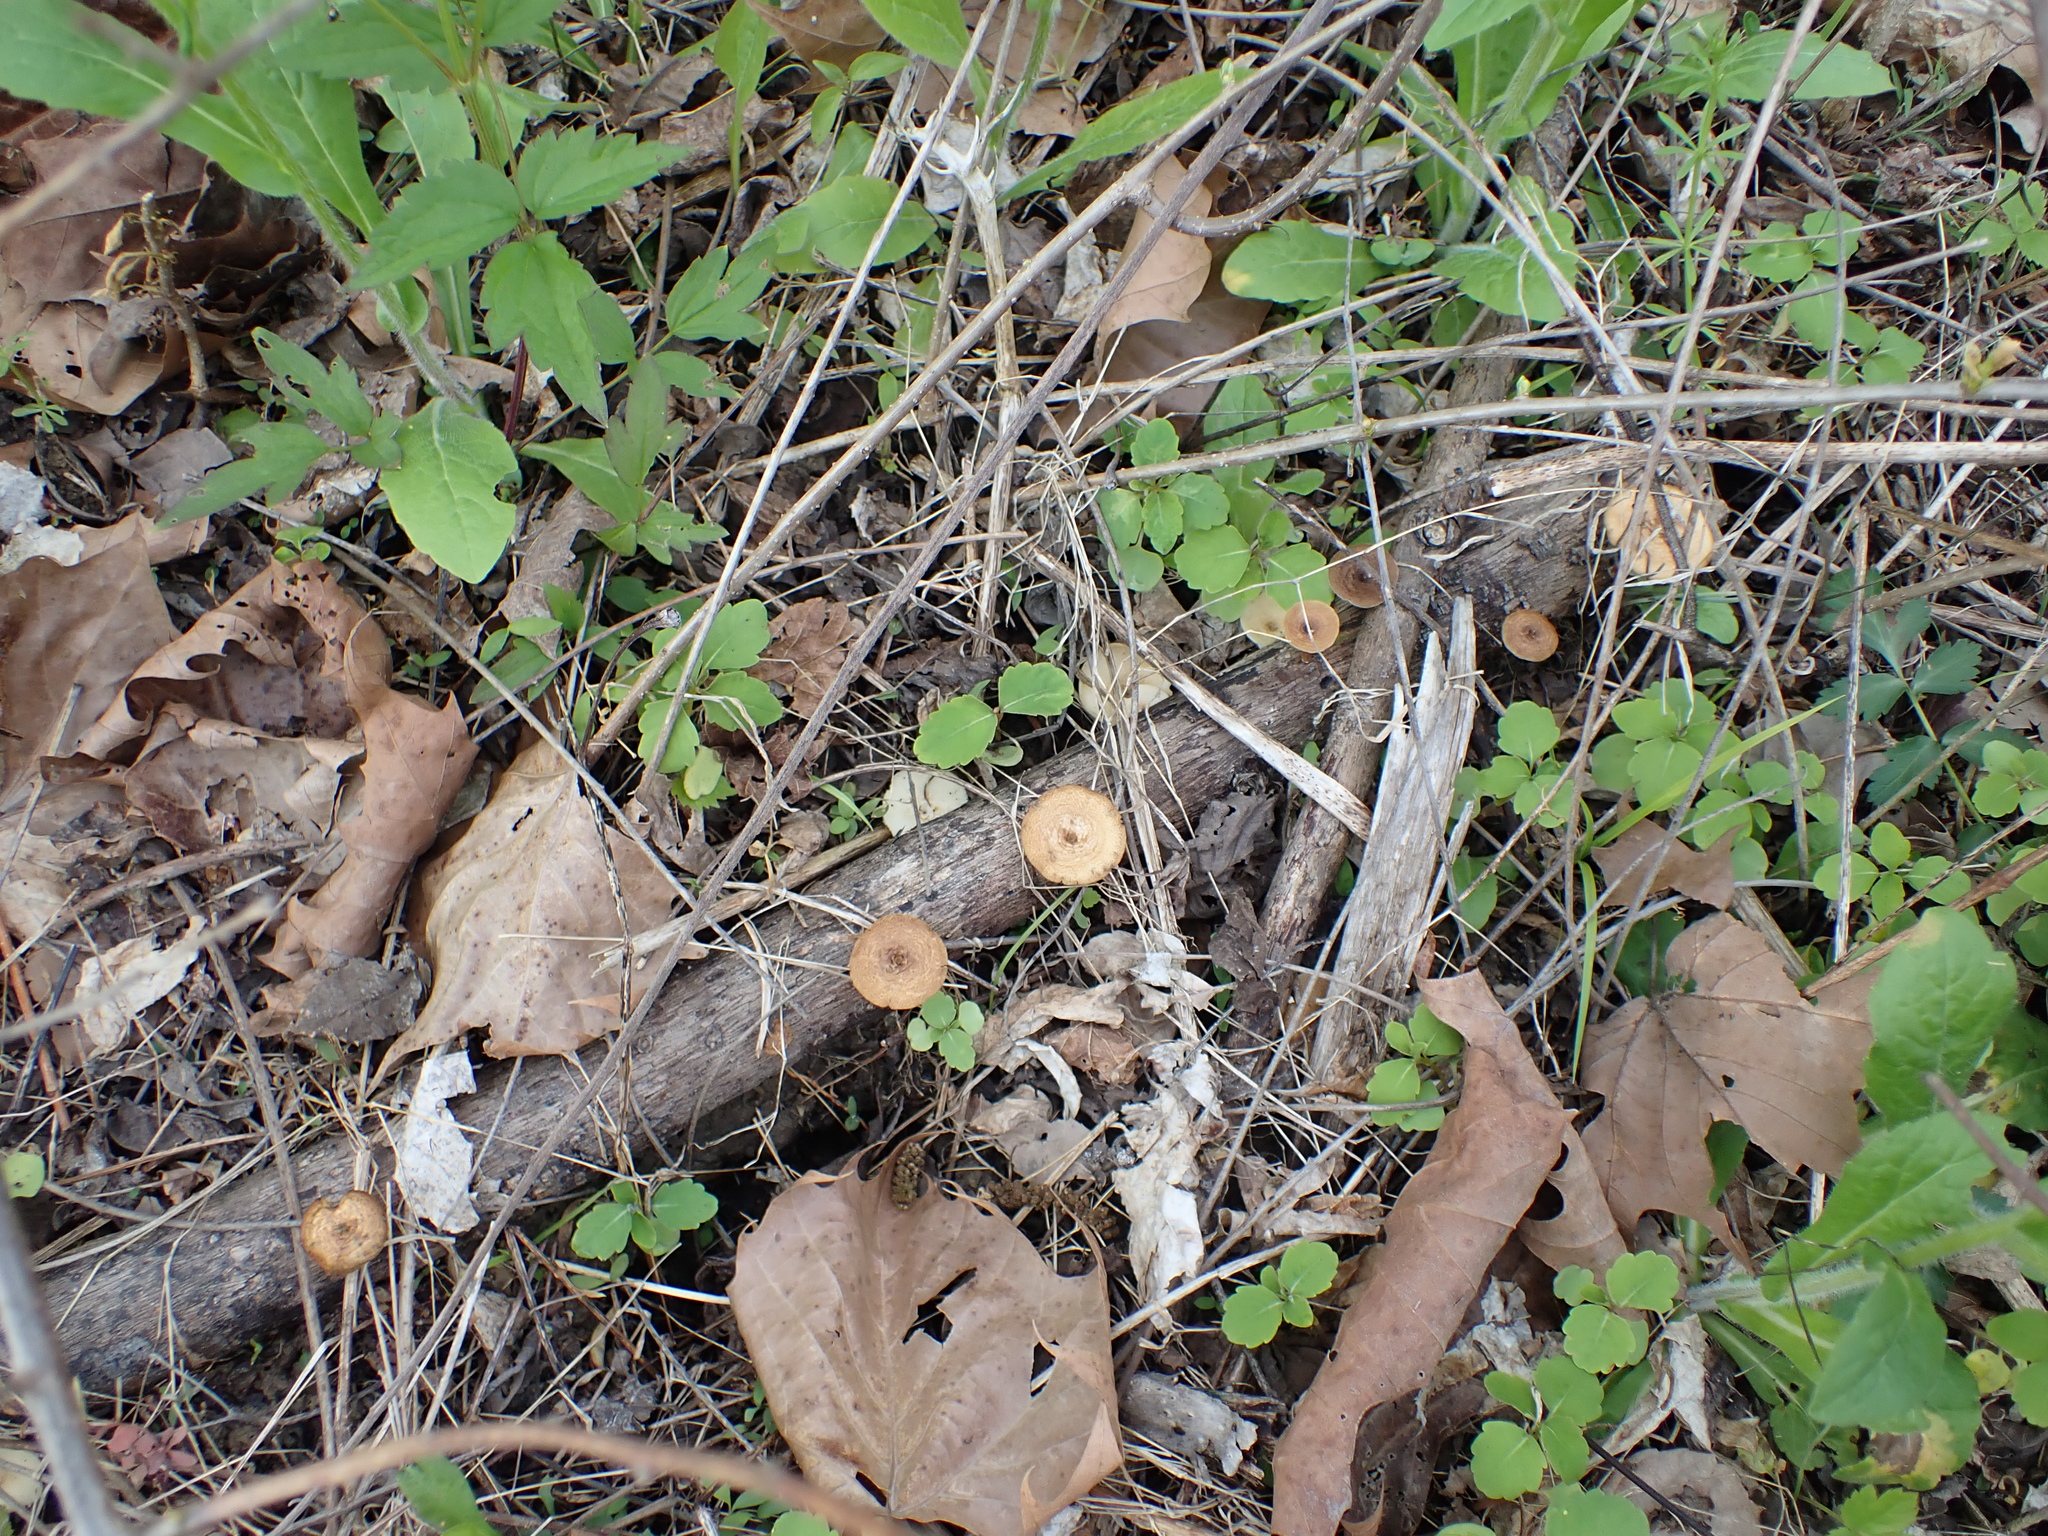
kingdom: Fungi
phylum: Basidiomycota
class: Agaricomycetes
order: Polyporales
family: Polyporaceae
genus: Lentinus
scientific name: Lentinus arcularius
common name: Spring polypore
